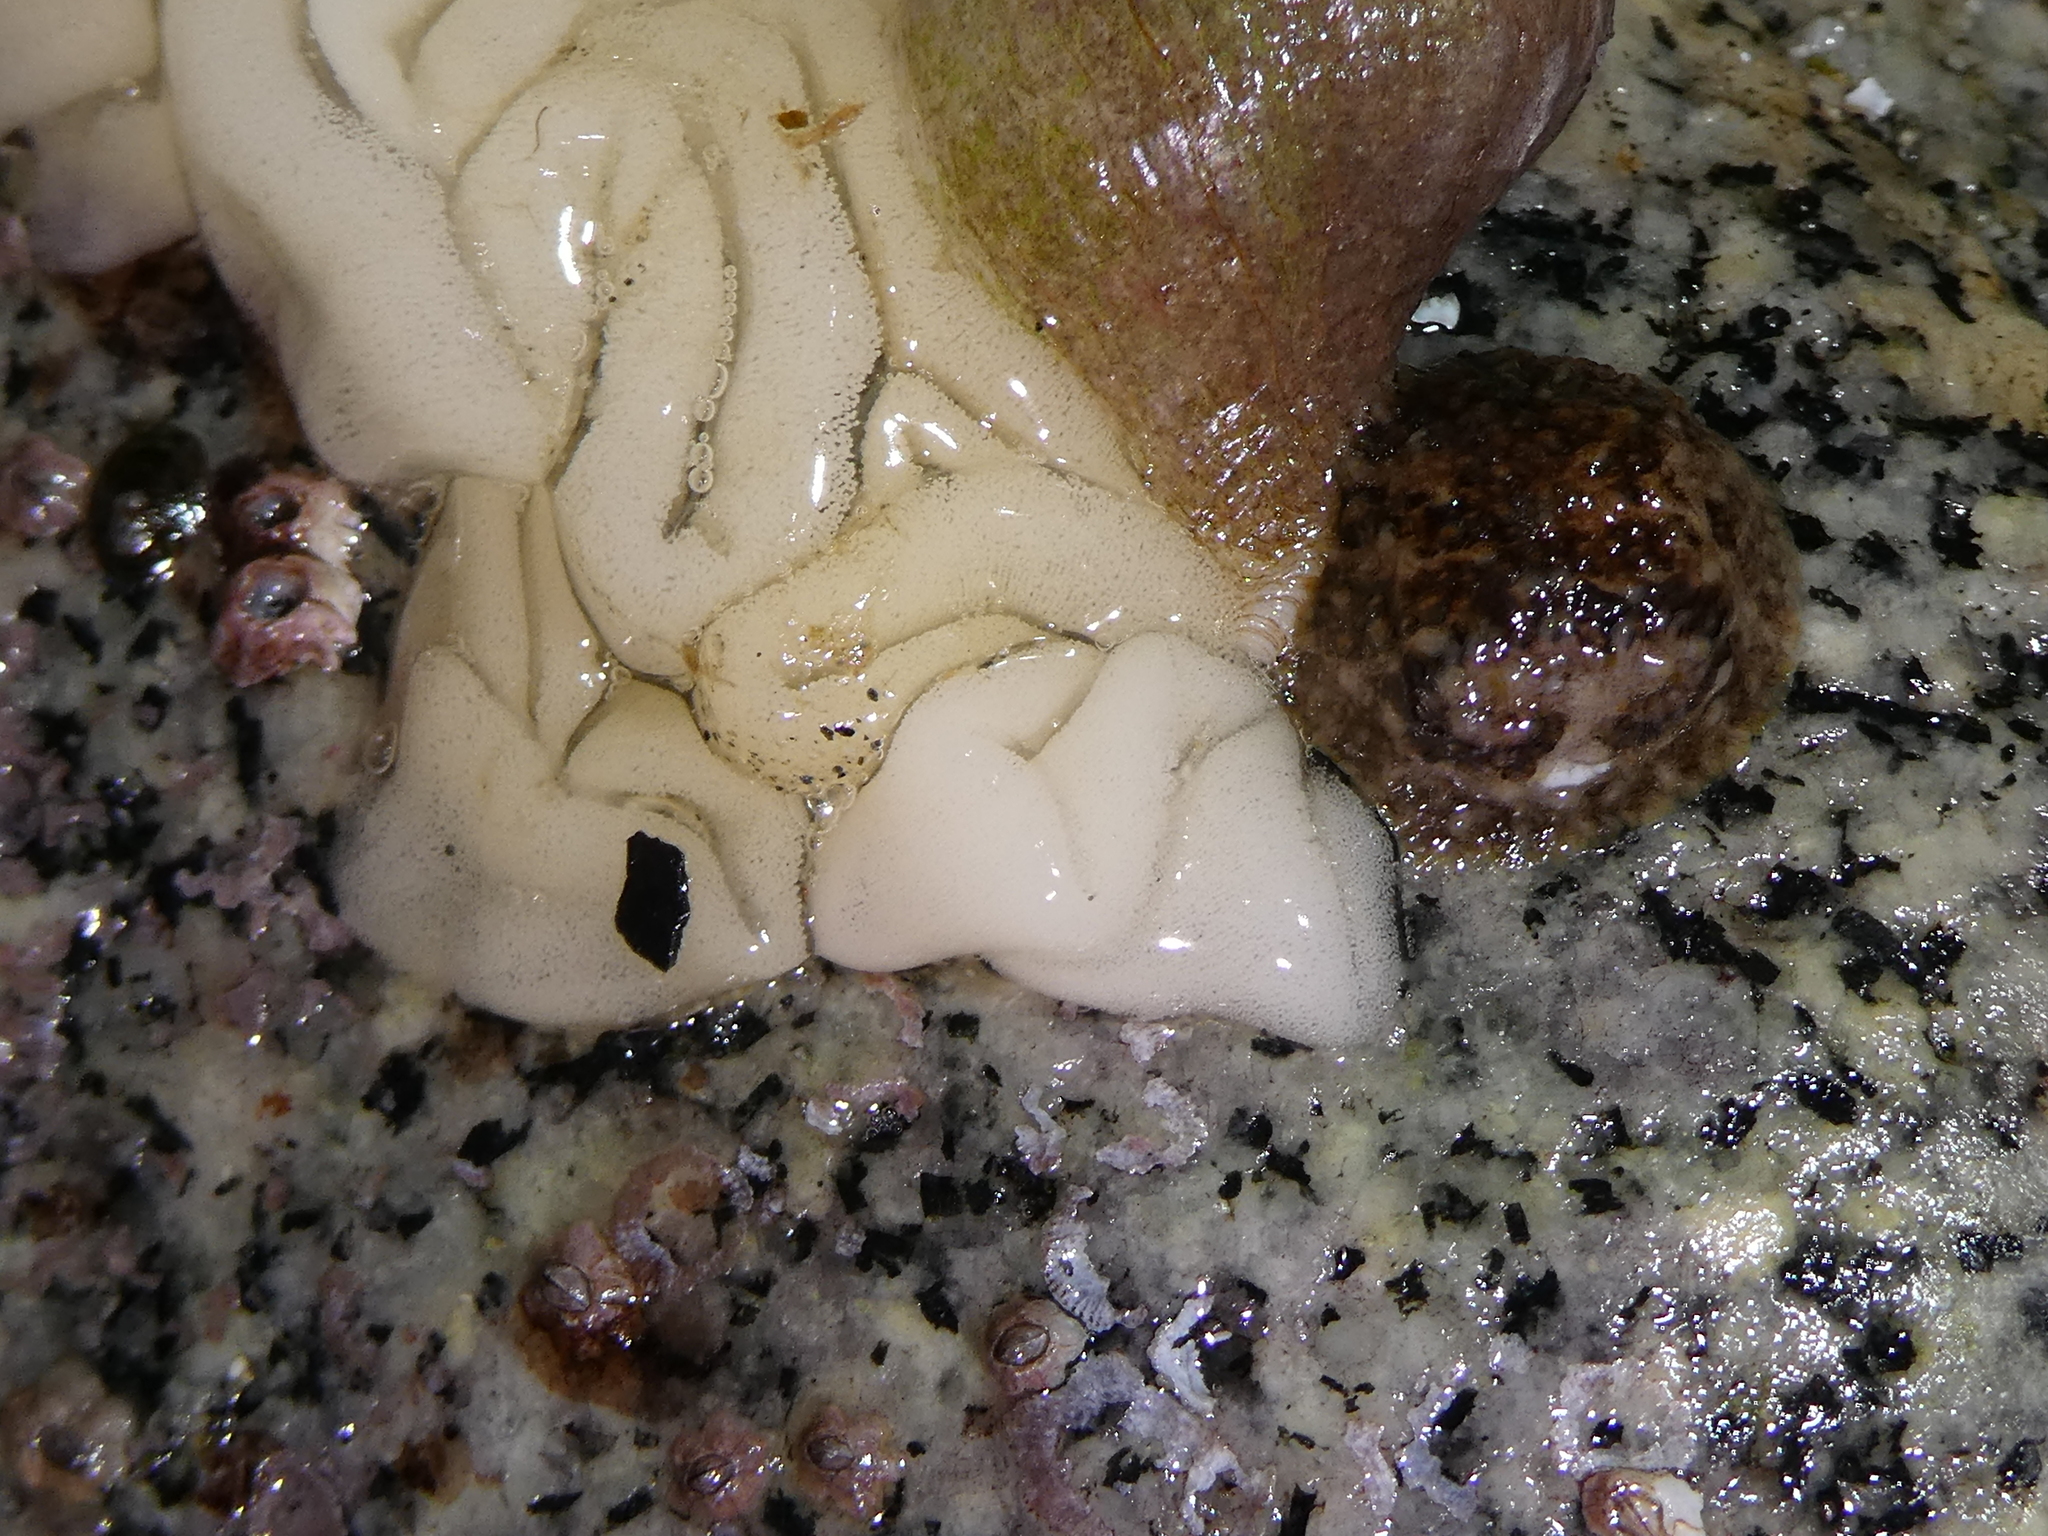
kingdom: Animalia
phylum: Mollusca
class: Gastropoda
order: Nudibranchia
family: Onchidorididae
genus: Onchidoris
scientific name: Onchidoris bilamellata
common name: Barnacle-eating onchidoris
